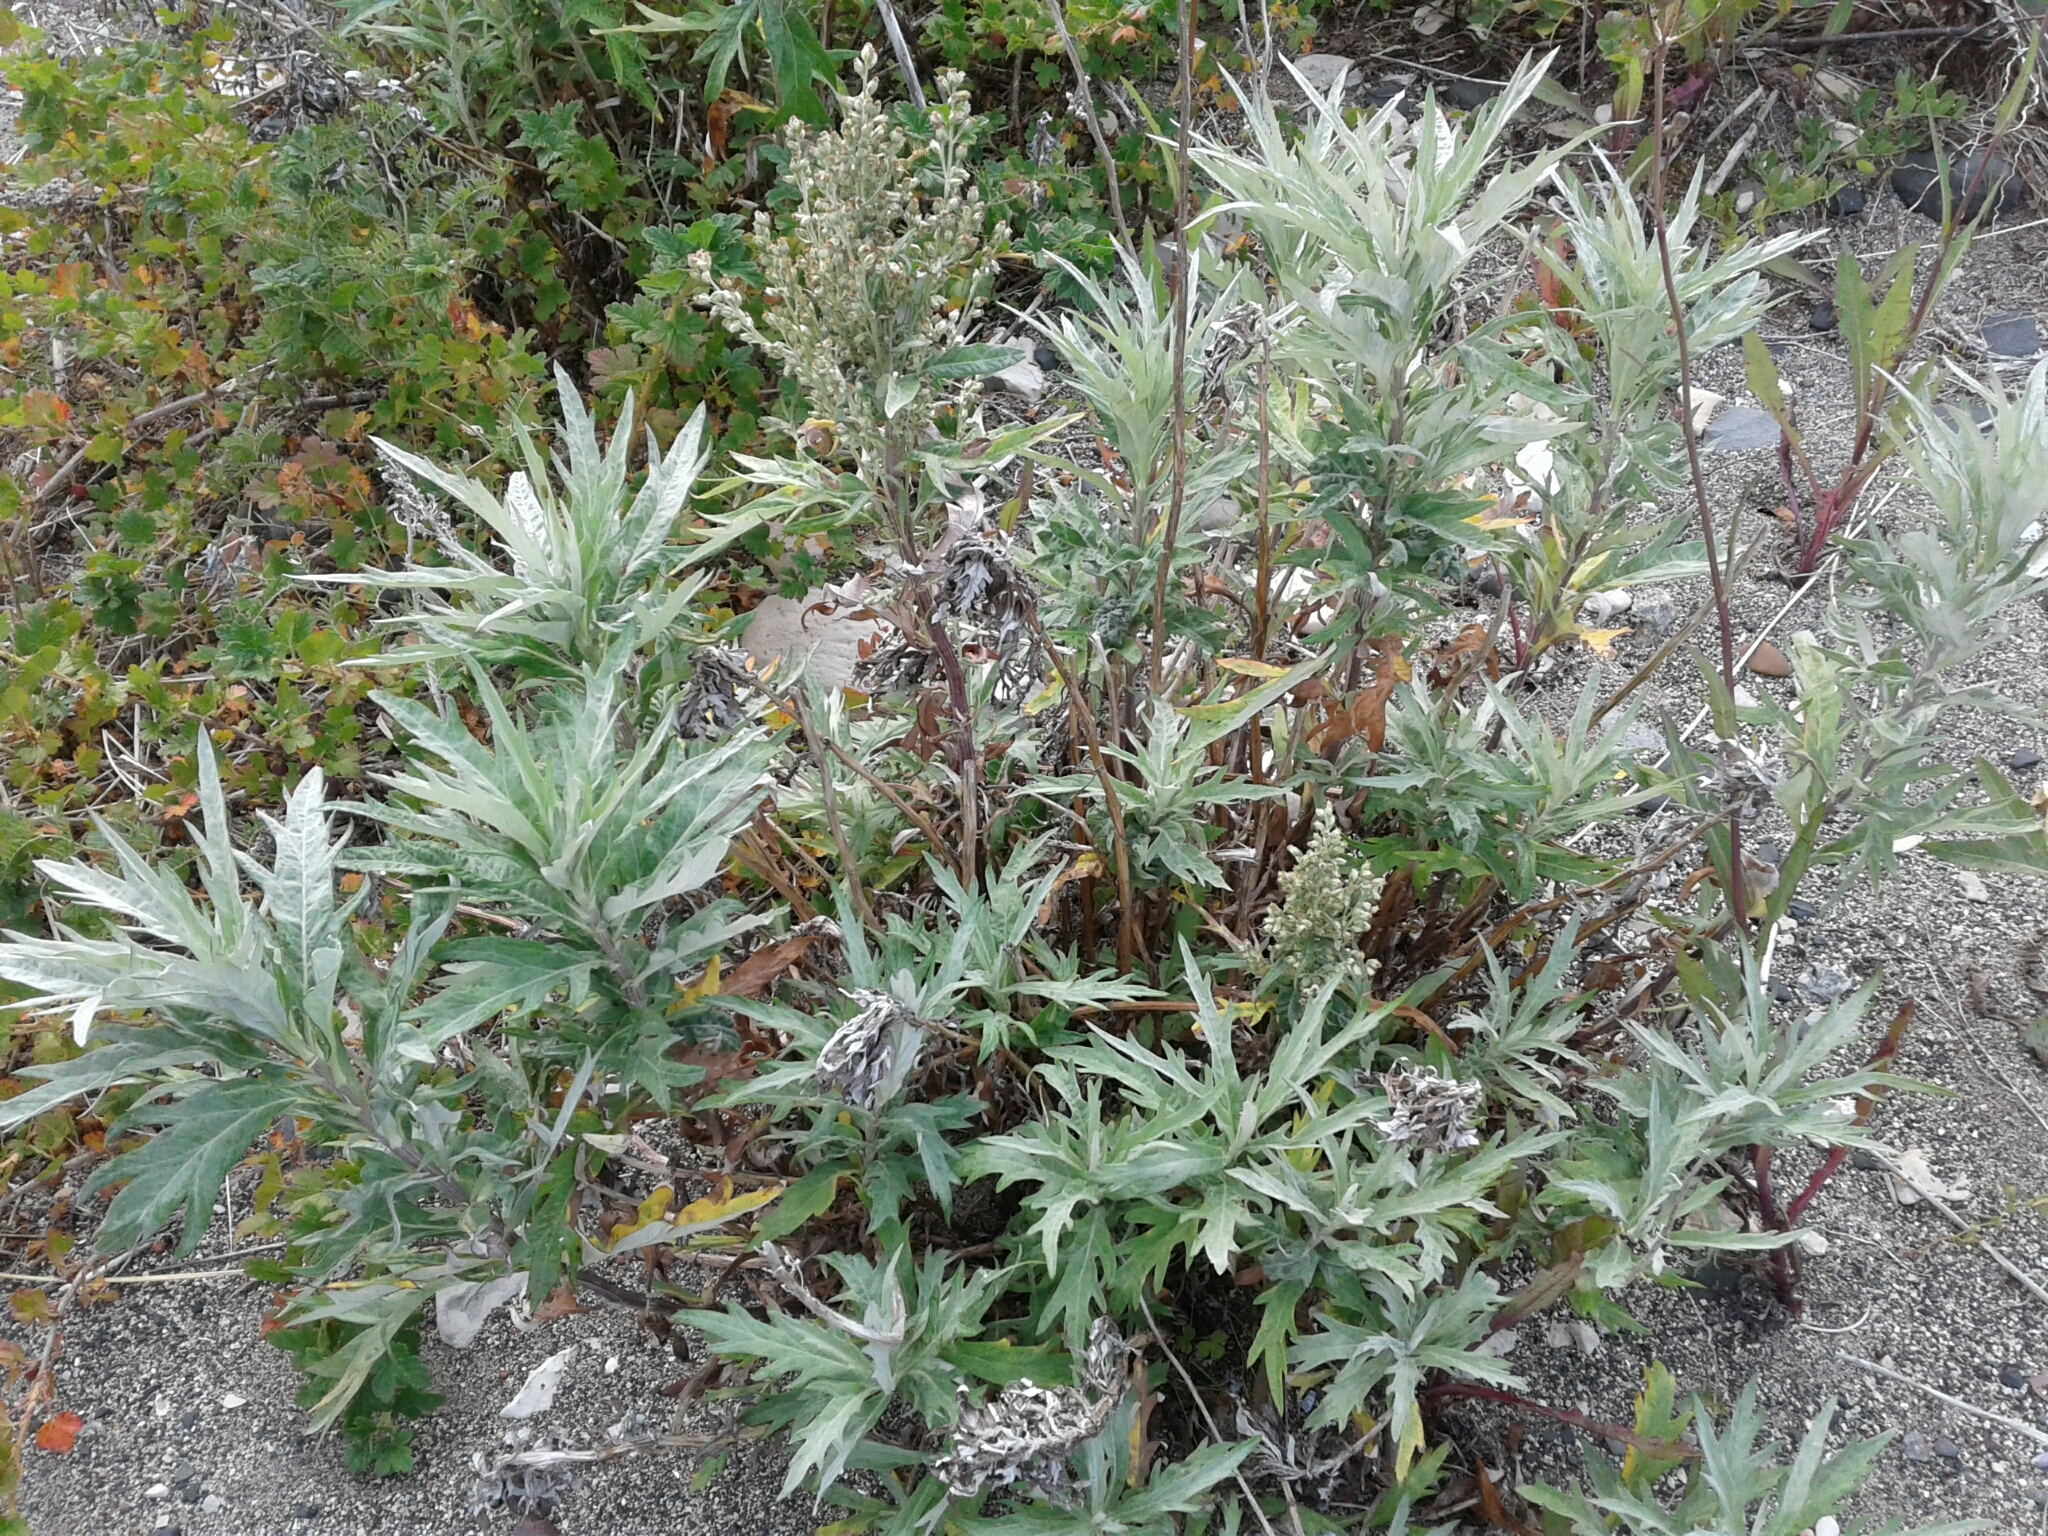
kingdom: Plantae
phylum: Tracheophyta
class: Magnoliopsida
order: Asterales
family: Asteraceae
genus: Artemisia
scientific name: Artemisia tilesii
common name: Aleutian mugwort
